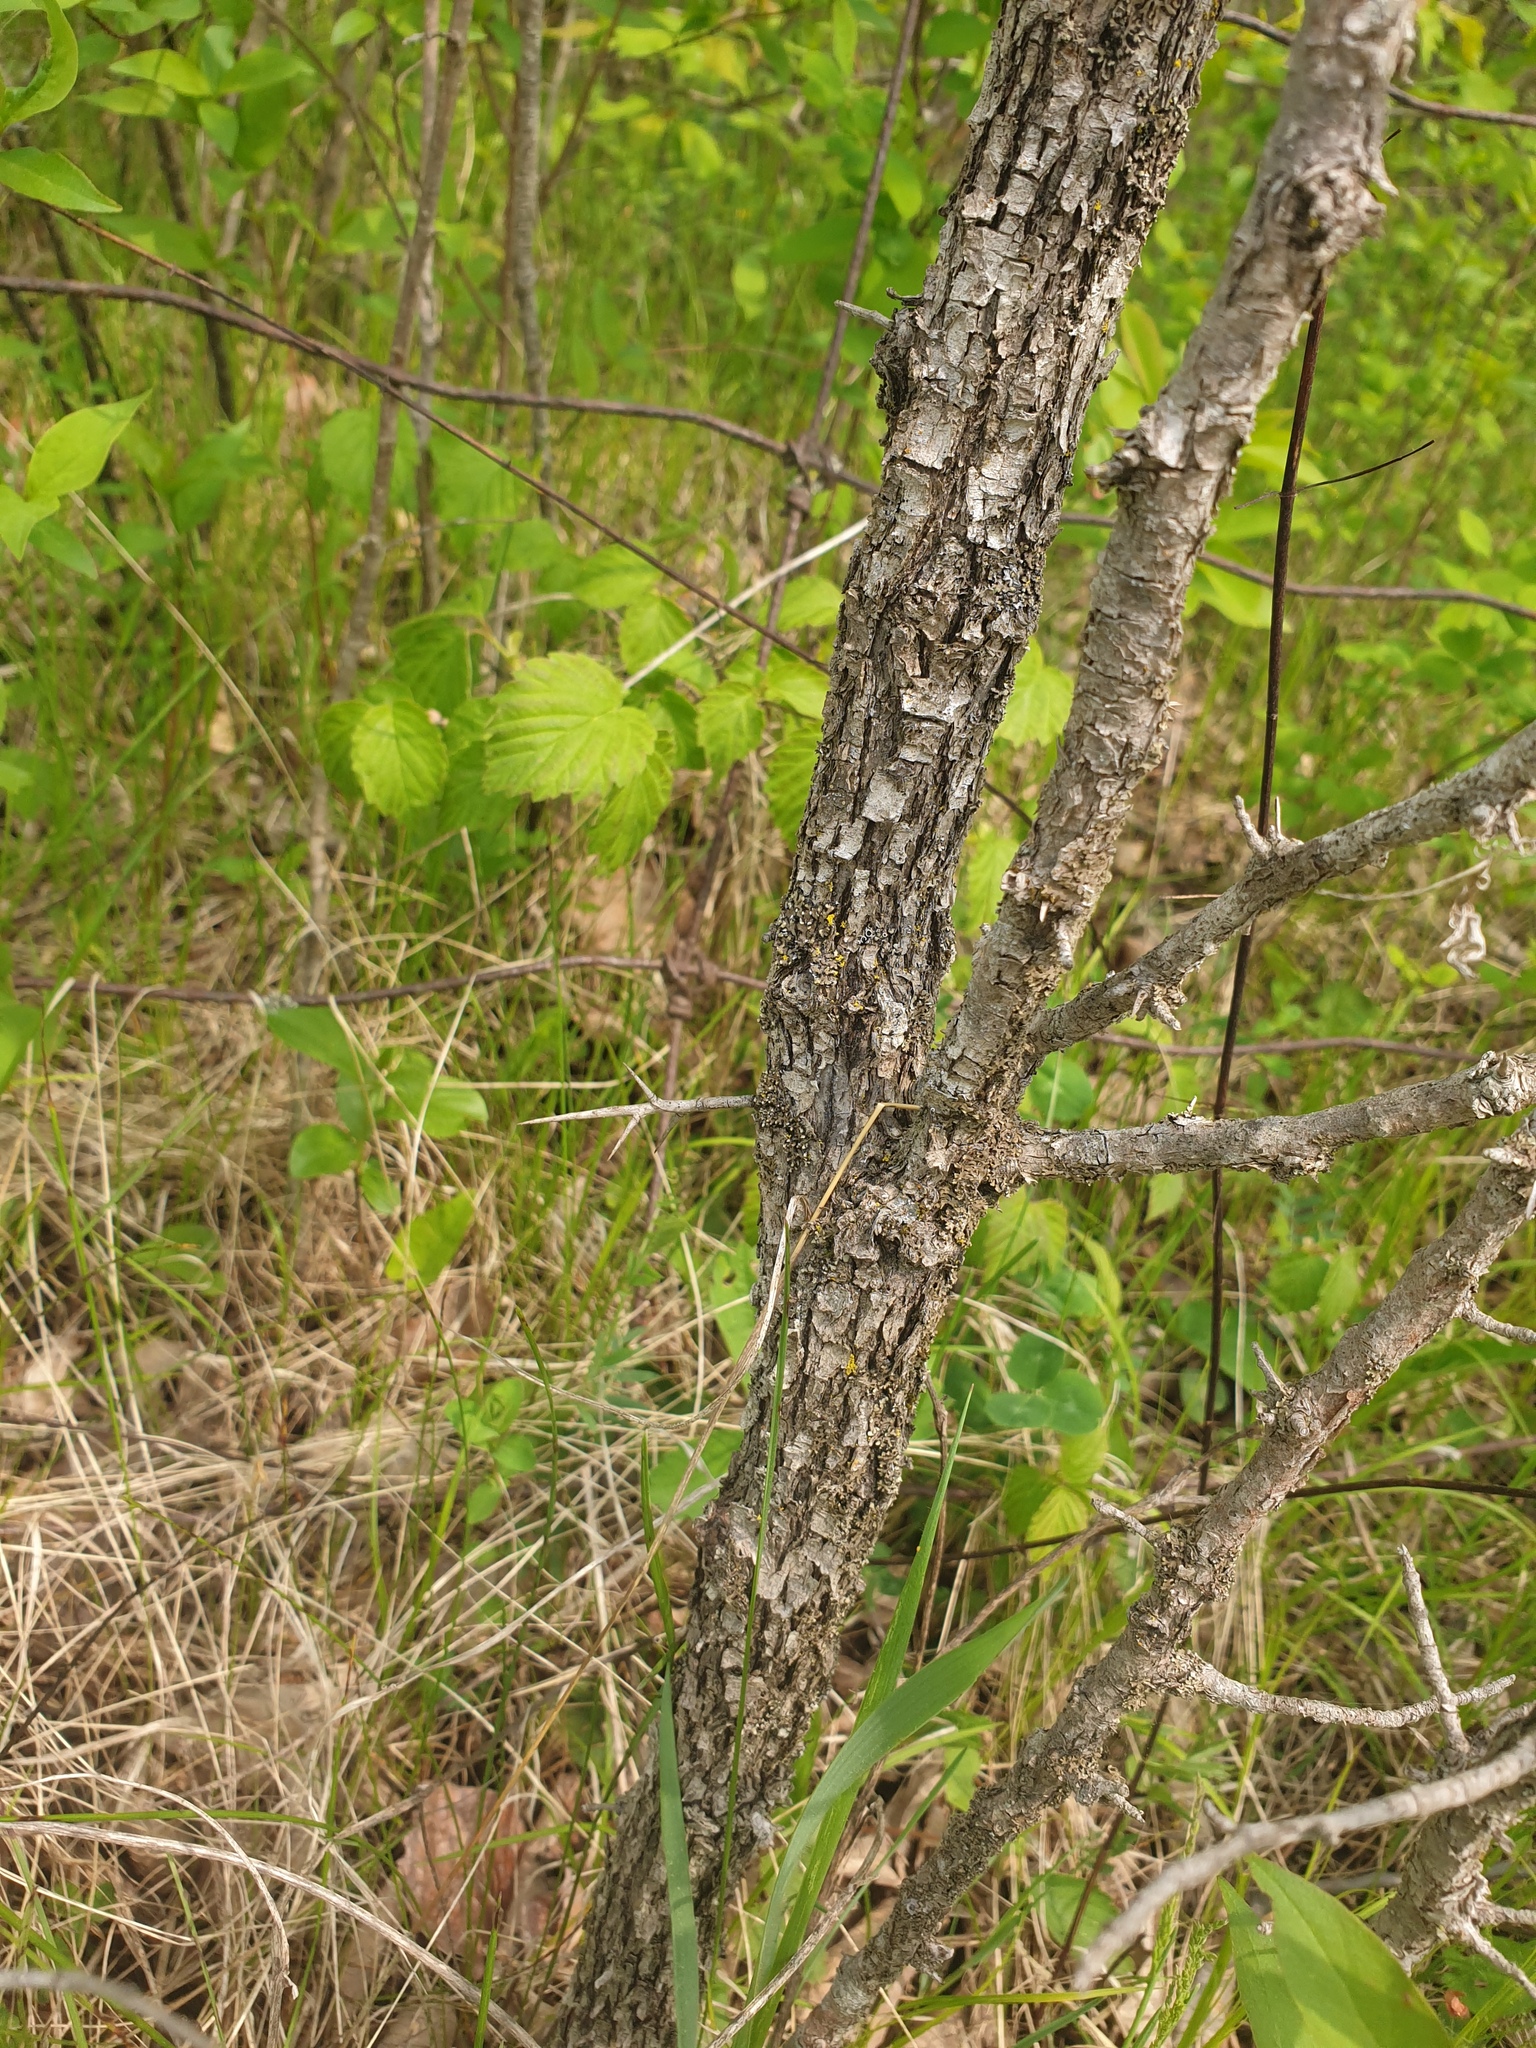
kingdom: Plantae
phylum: Tracheophyta
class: Magnoliopsida
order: Rosales
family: Rosaceae
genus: Crataegus
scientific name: Crataegus punctata
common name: Dotted hawthorn
